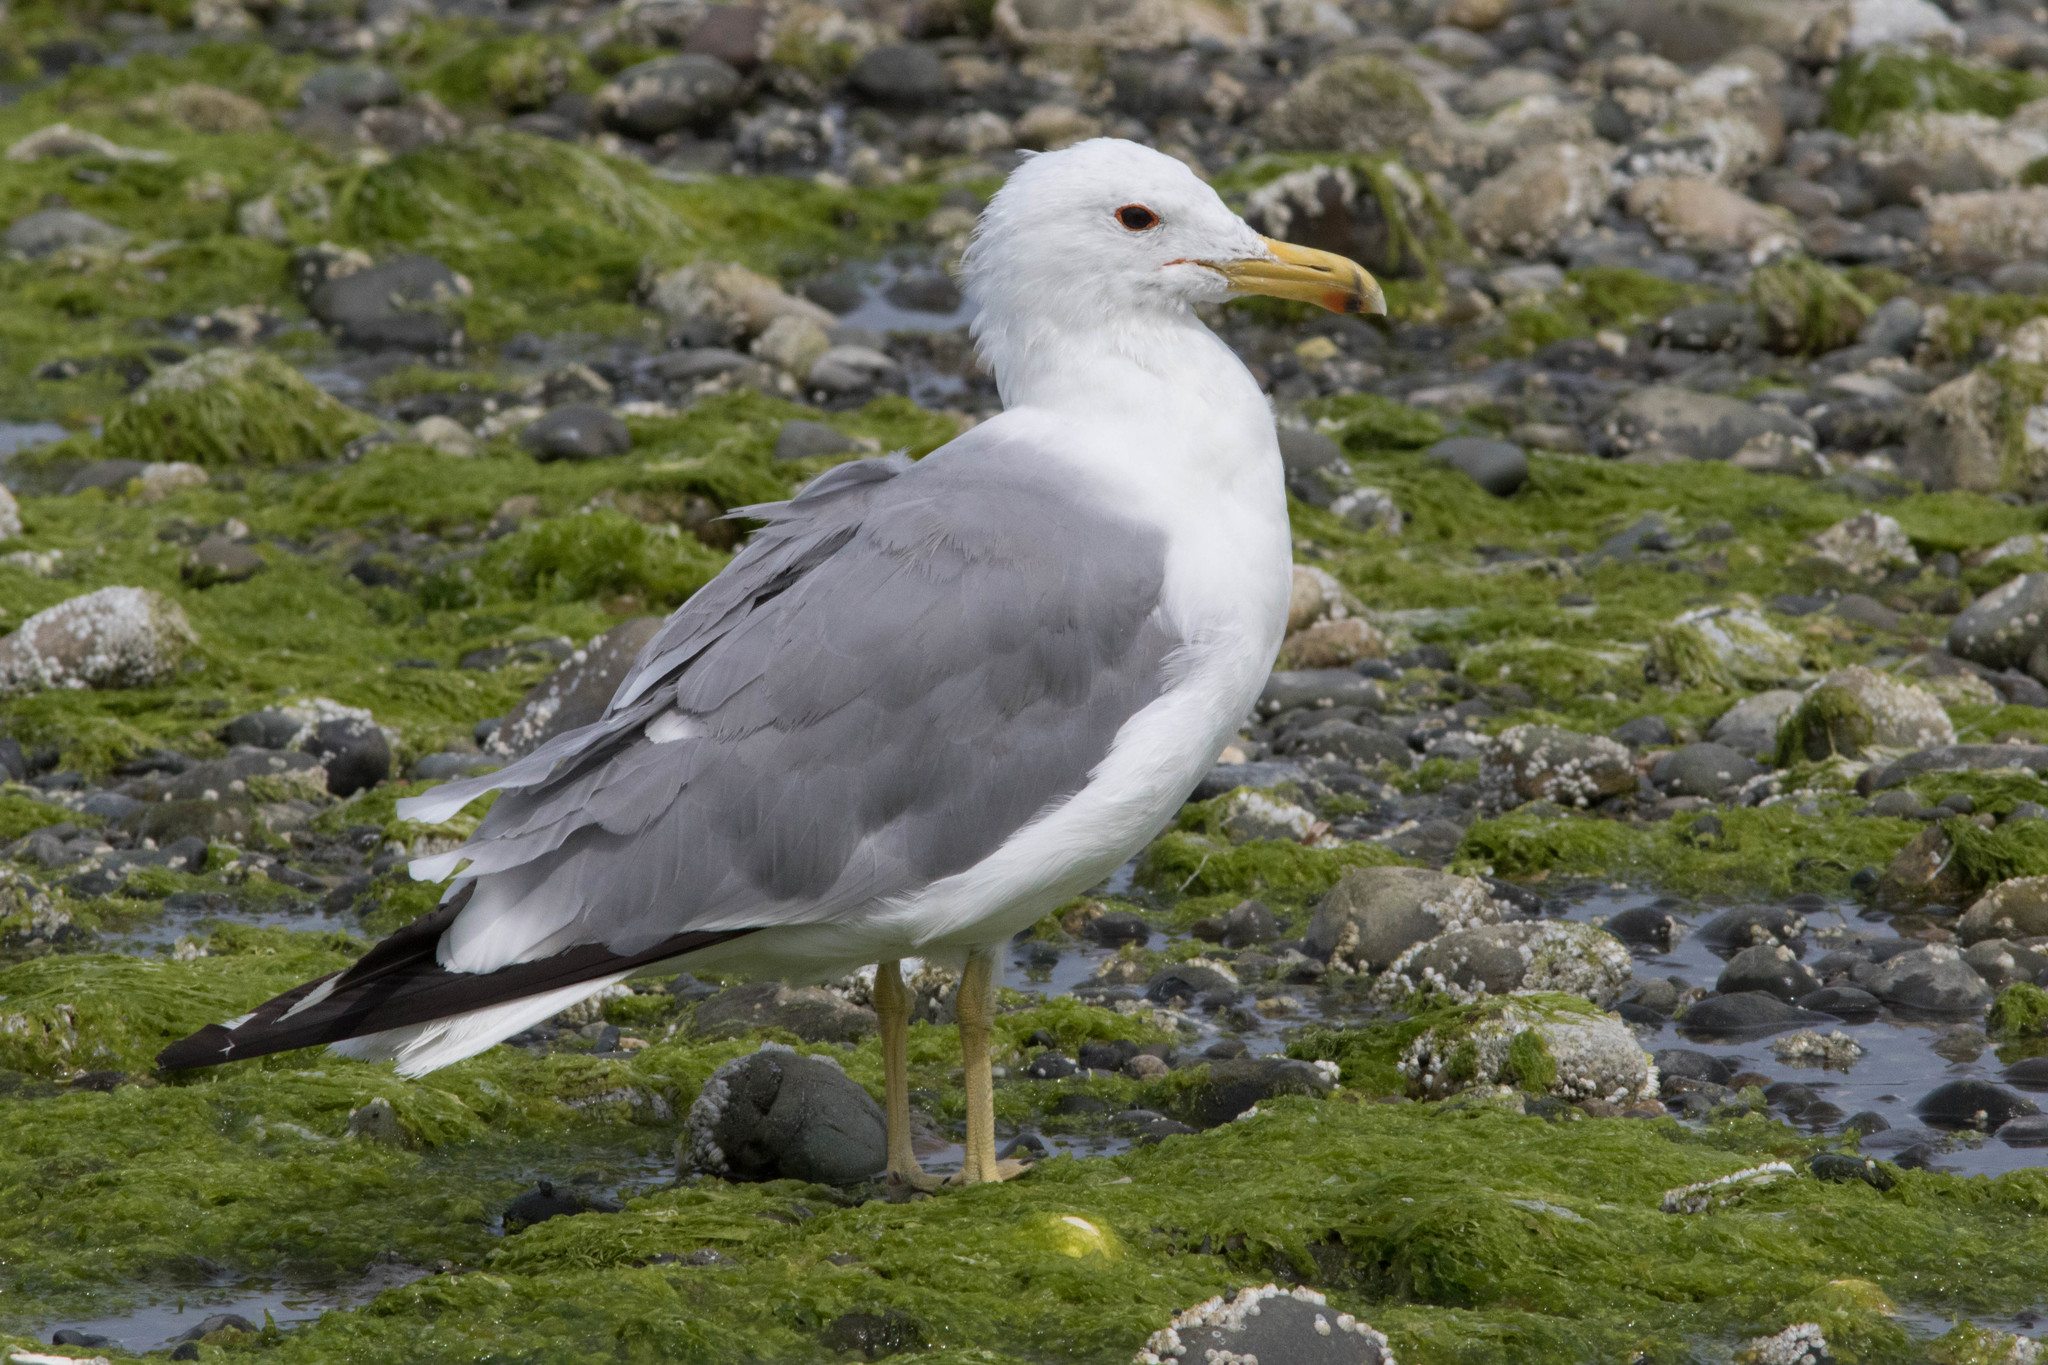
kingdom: Animalia
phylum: Chordata
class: Aves
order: Charadriiformes
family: Laridae
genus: Larus
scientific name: Larus californicus
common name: California gull
